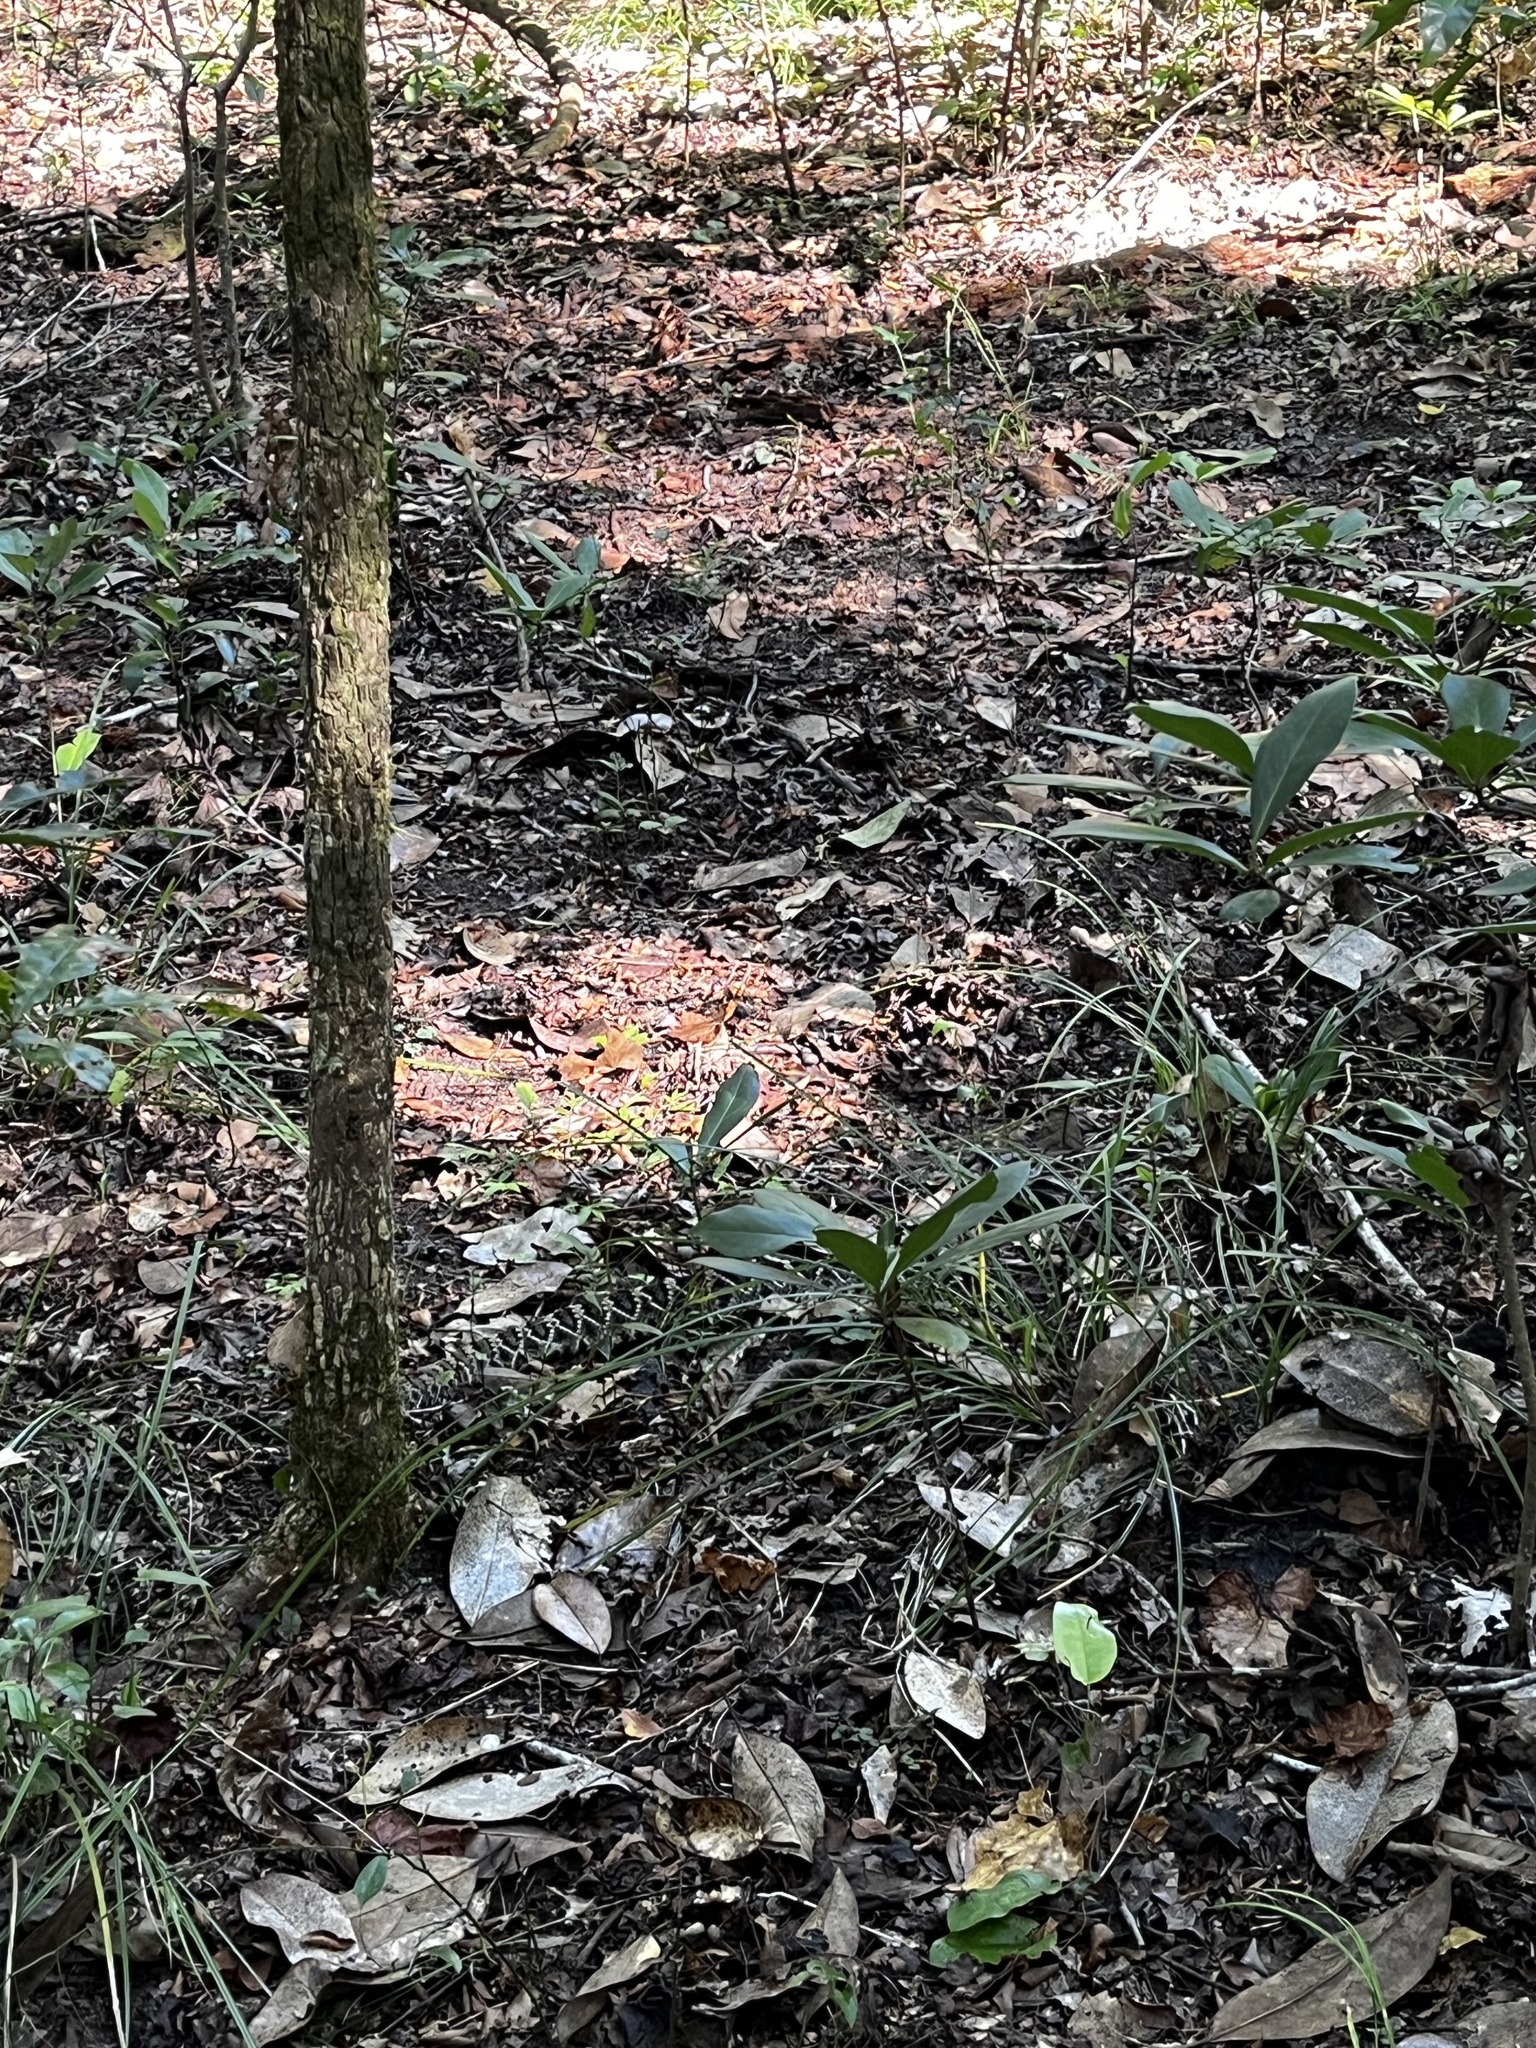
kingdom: Animalia
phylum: Chordata
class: Squamata
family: Viperidae
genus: Crotalus
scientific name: Crotalus adamanteus
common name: Eastern diamondback rattlesnake
